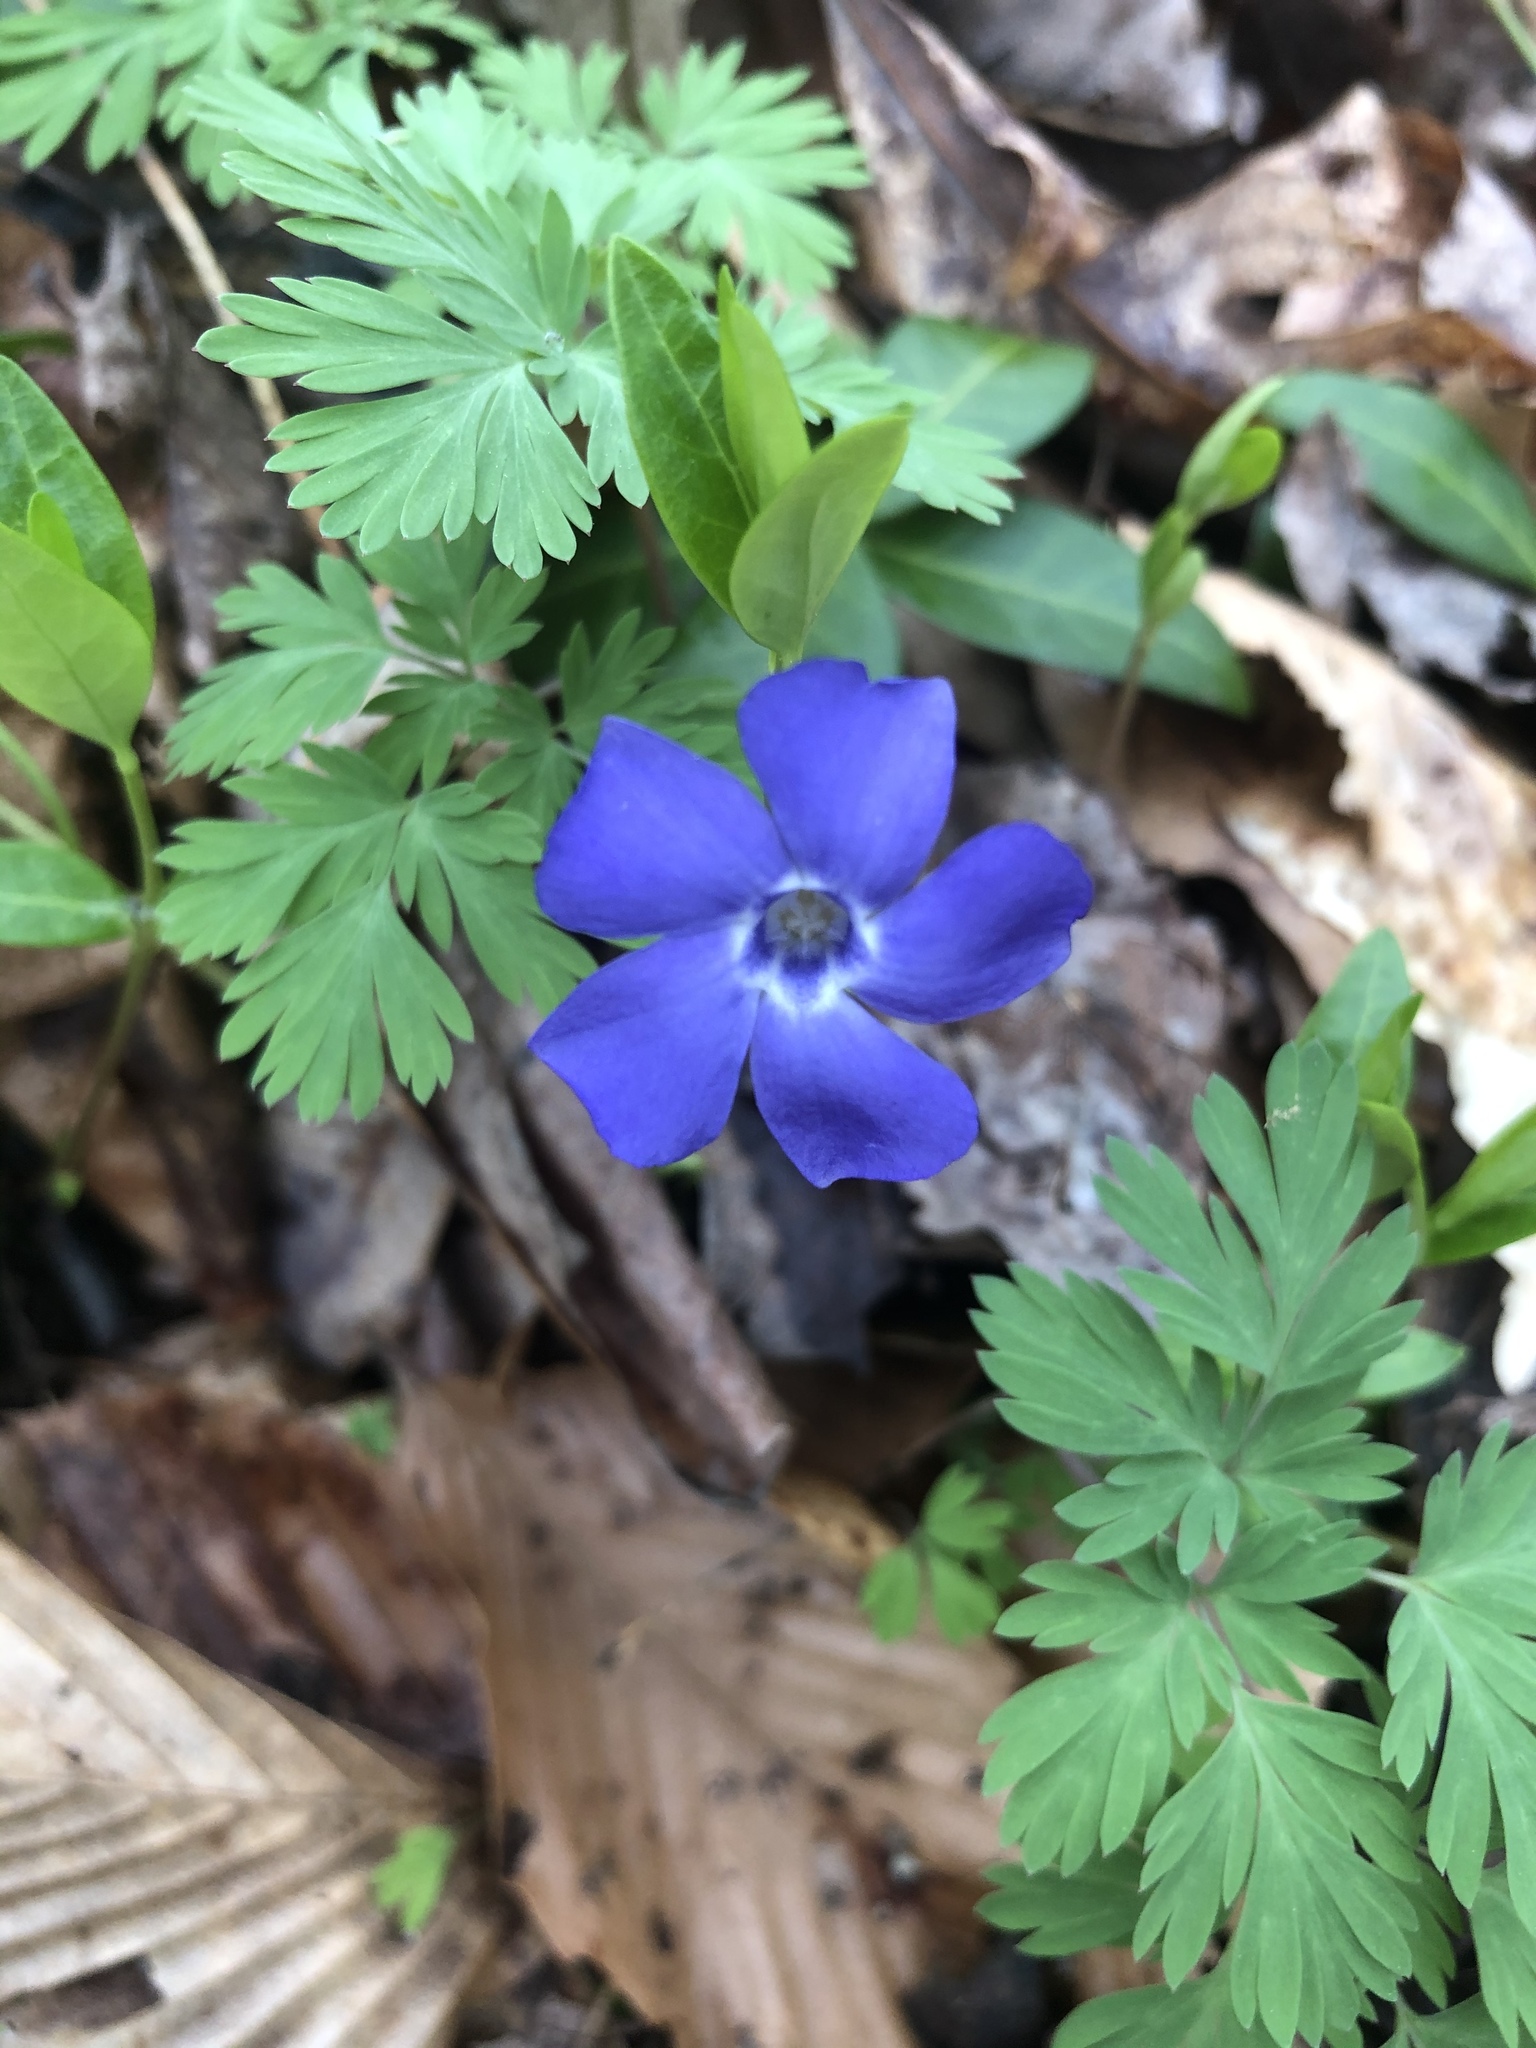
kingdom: Plantae
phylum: Tracheophyta
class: Magnoliopsida
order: Gentianales
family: Apocynaceae
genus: Vinca
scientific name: Vinca minor
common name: Lesser periwinkle
